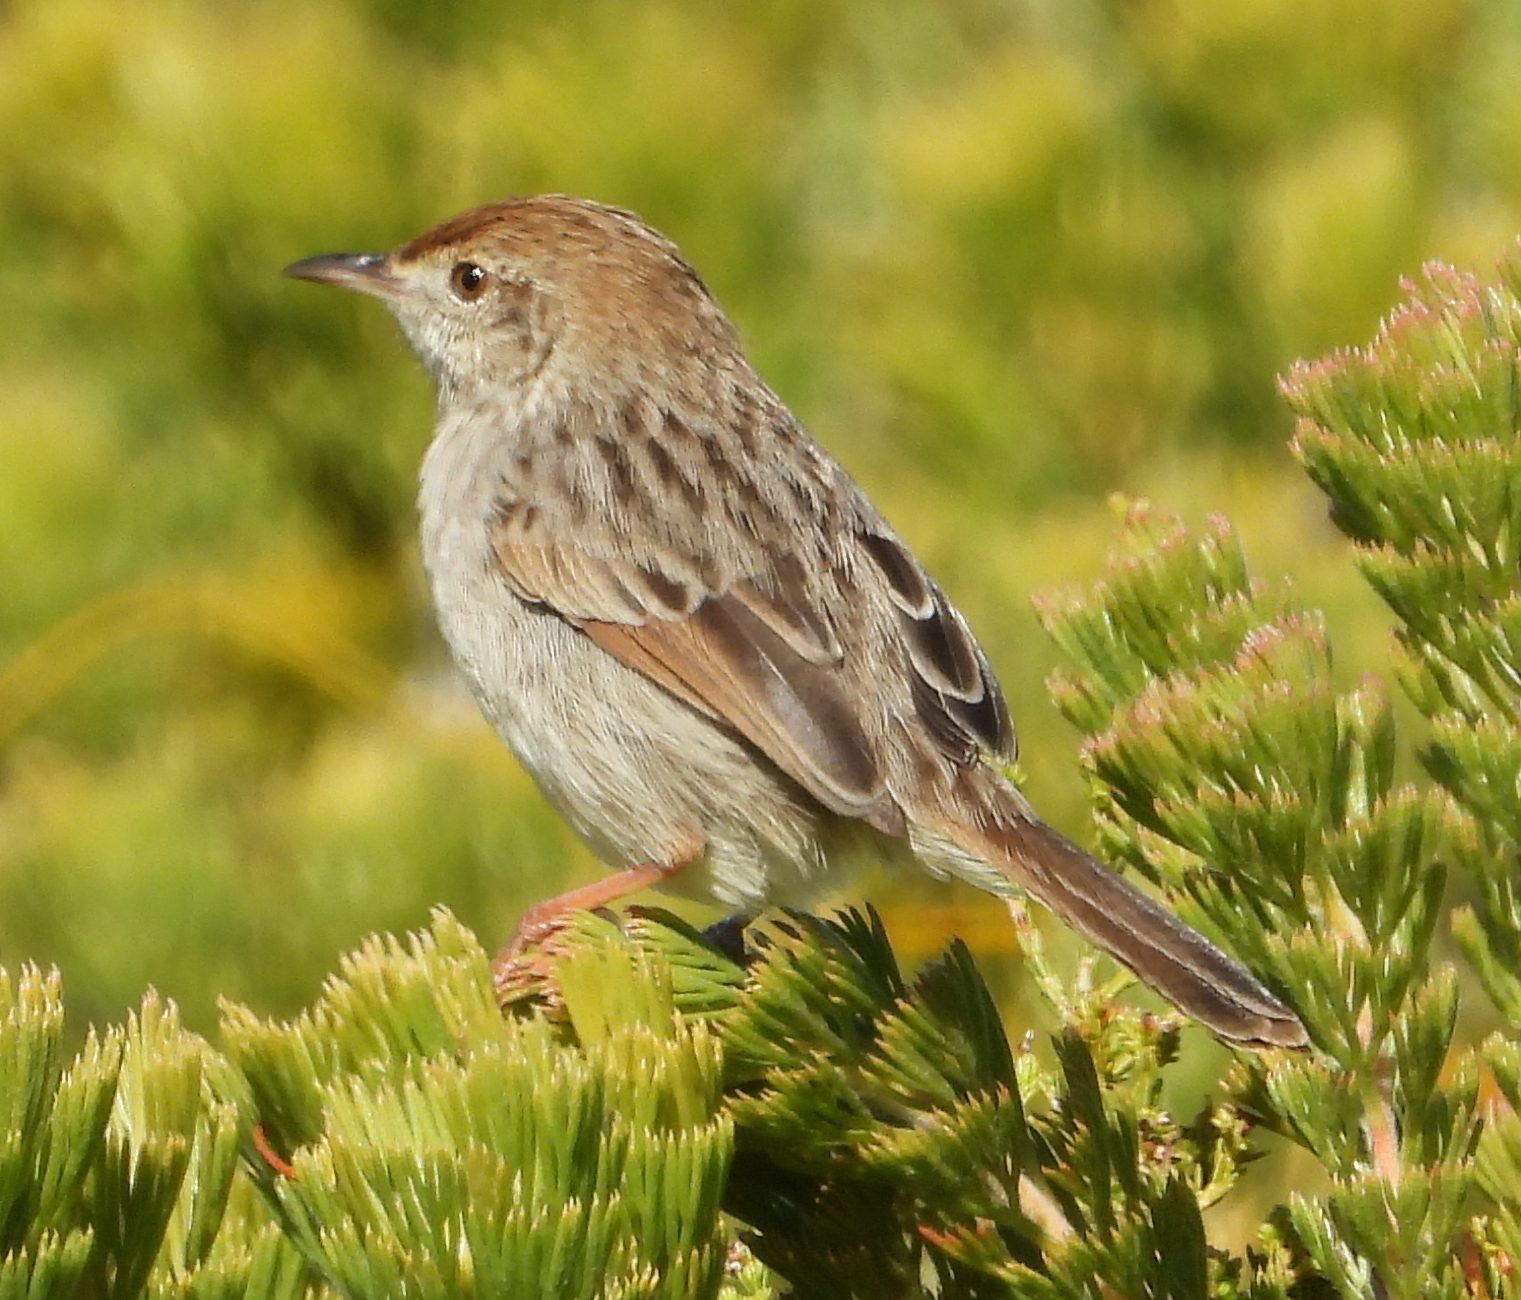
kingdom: Animalia
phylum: Chordata
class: Aves
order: Passeriformes
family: Cisticolidae
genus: Cisticola
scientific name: Cisticola subruficapilla
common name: Grey-backed cisticola
